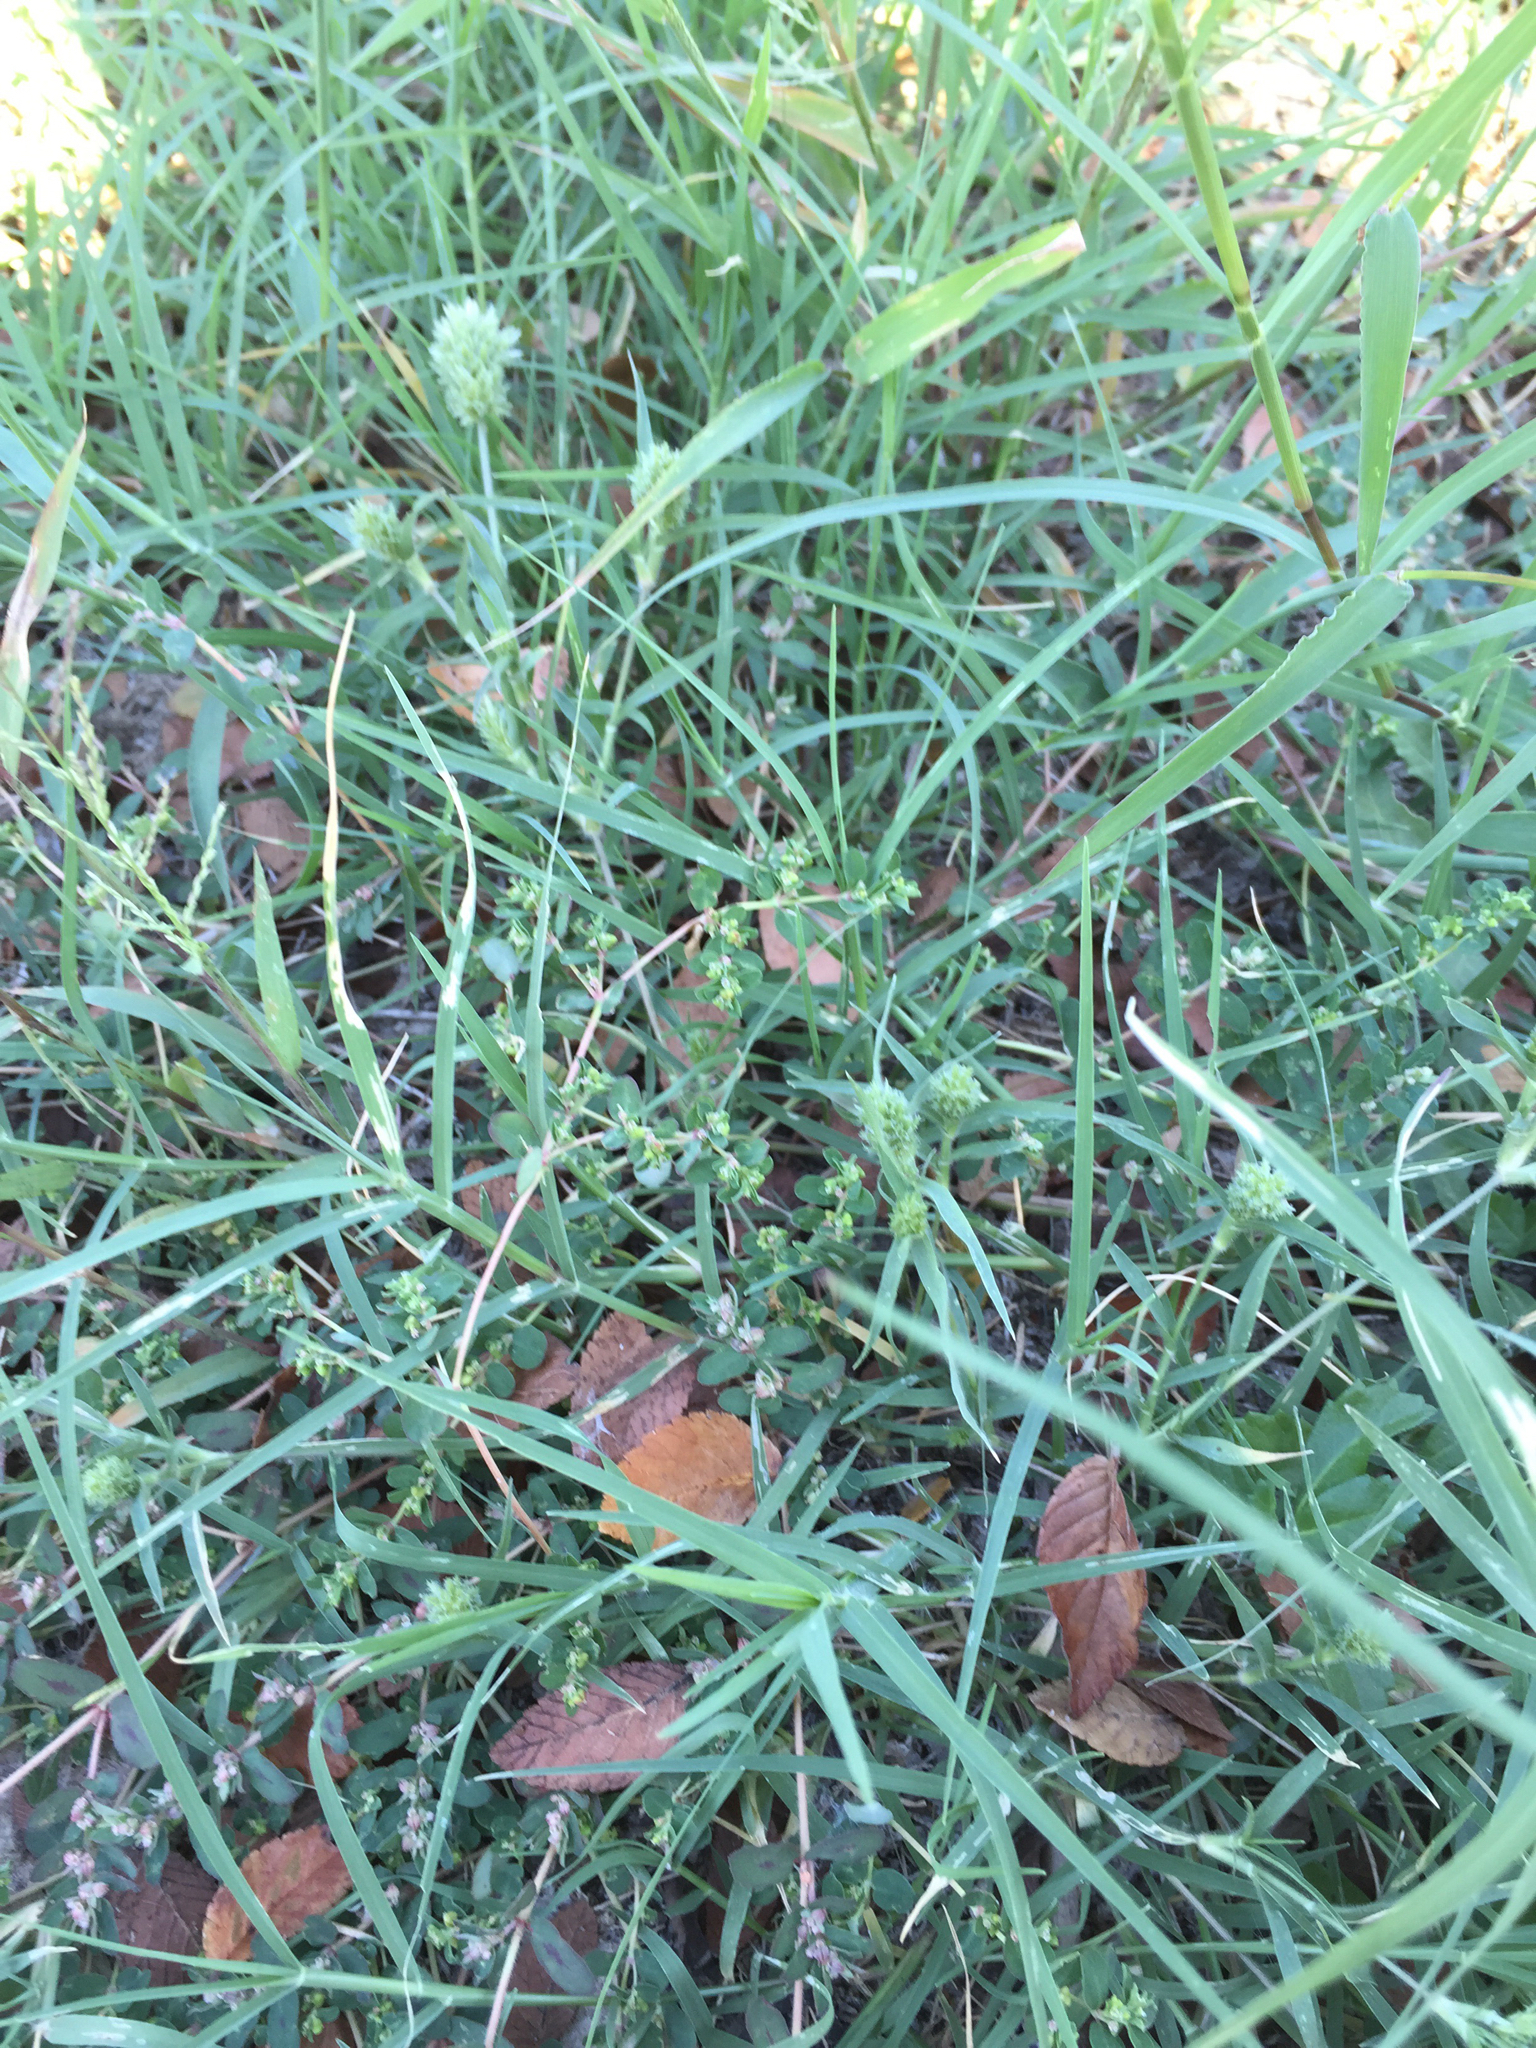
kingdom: Plantae
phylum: Tracheophyta
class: Liliopsida
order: Poales
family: Poaceae
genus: Eragrostis
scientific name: Eragrostis reptans
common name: Creeping love grass
